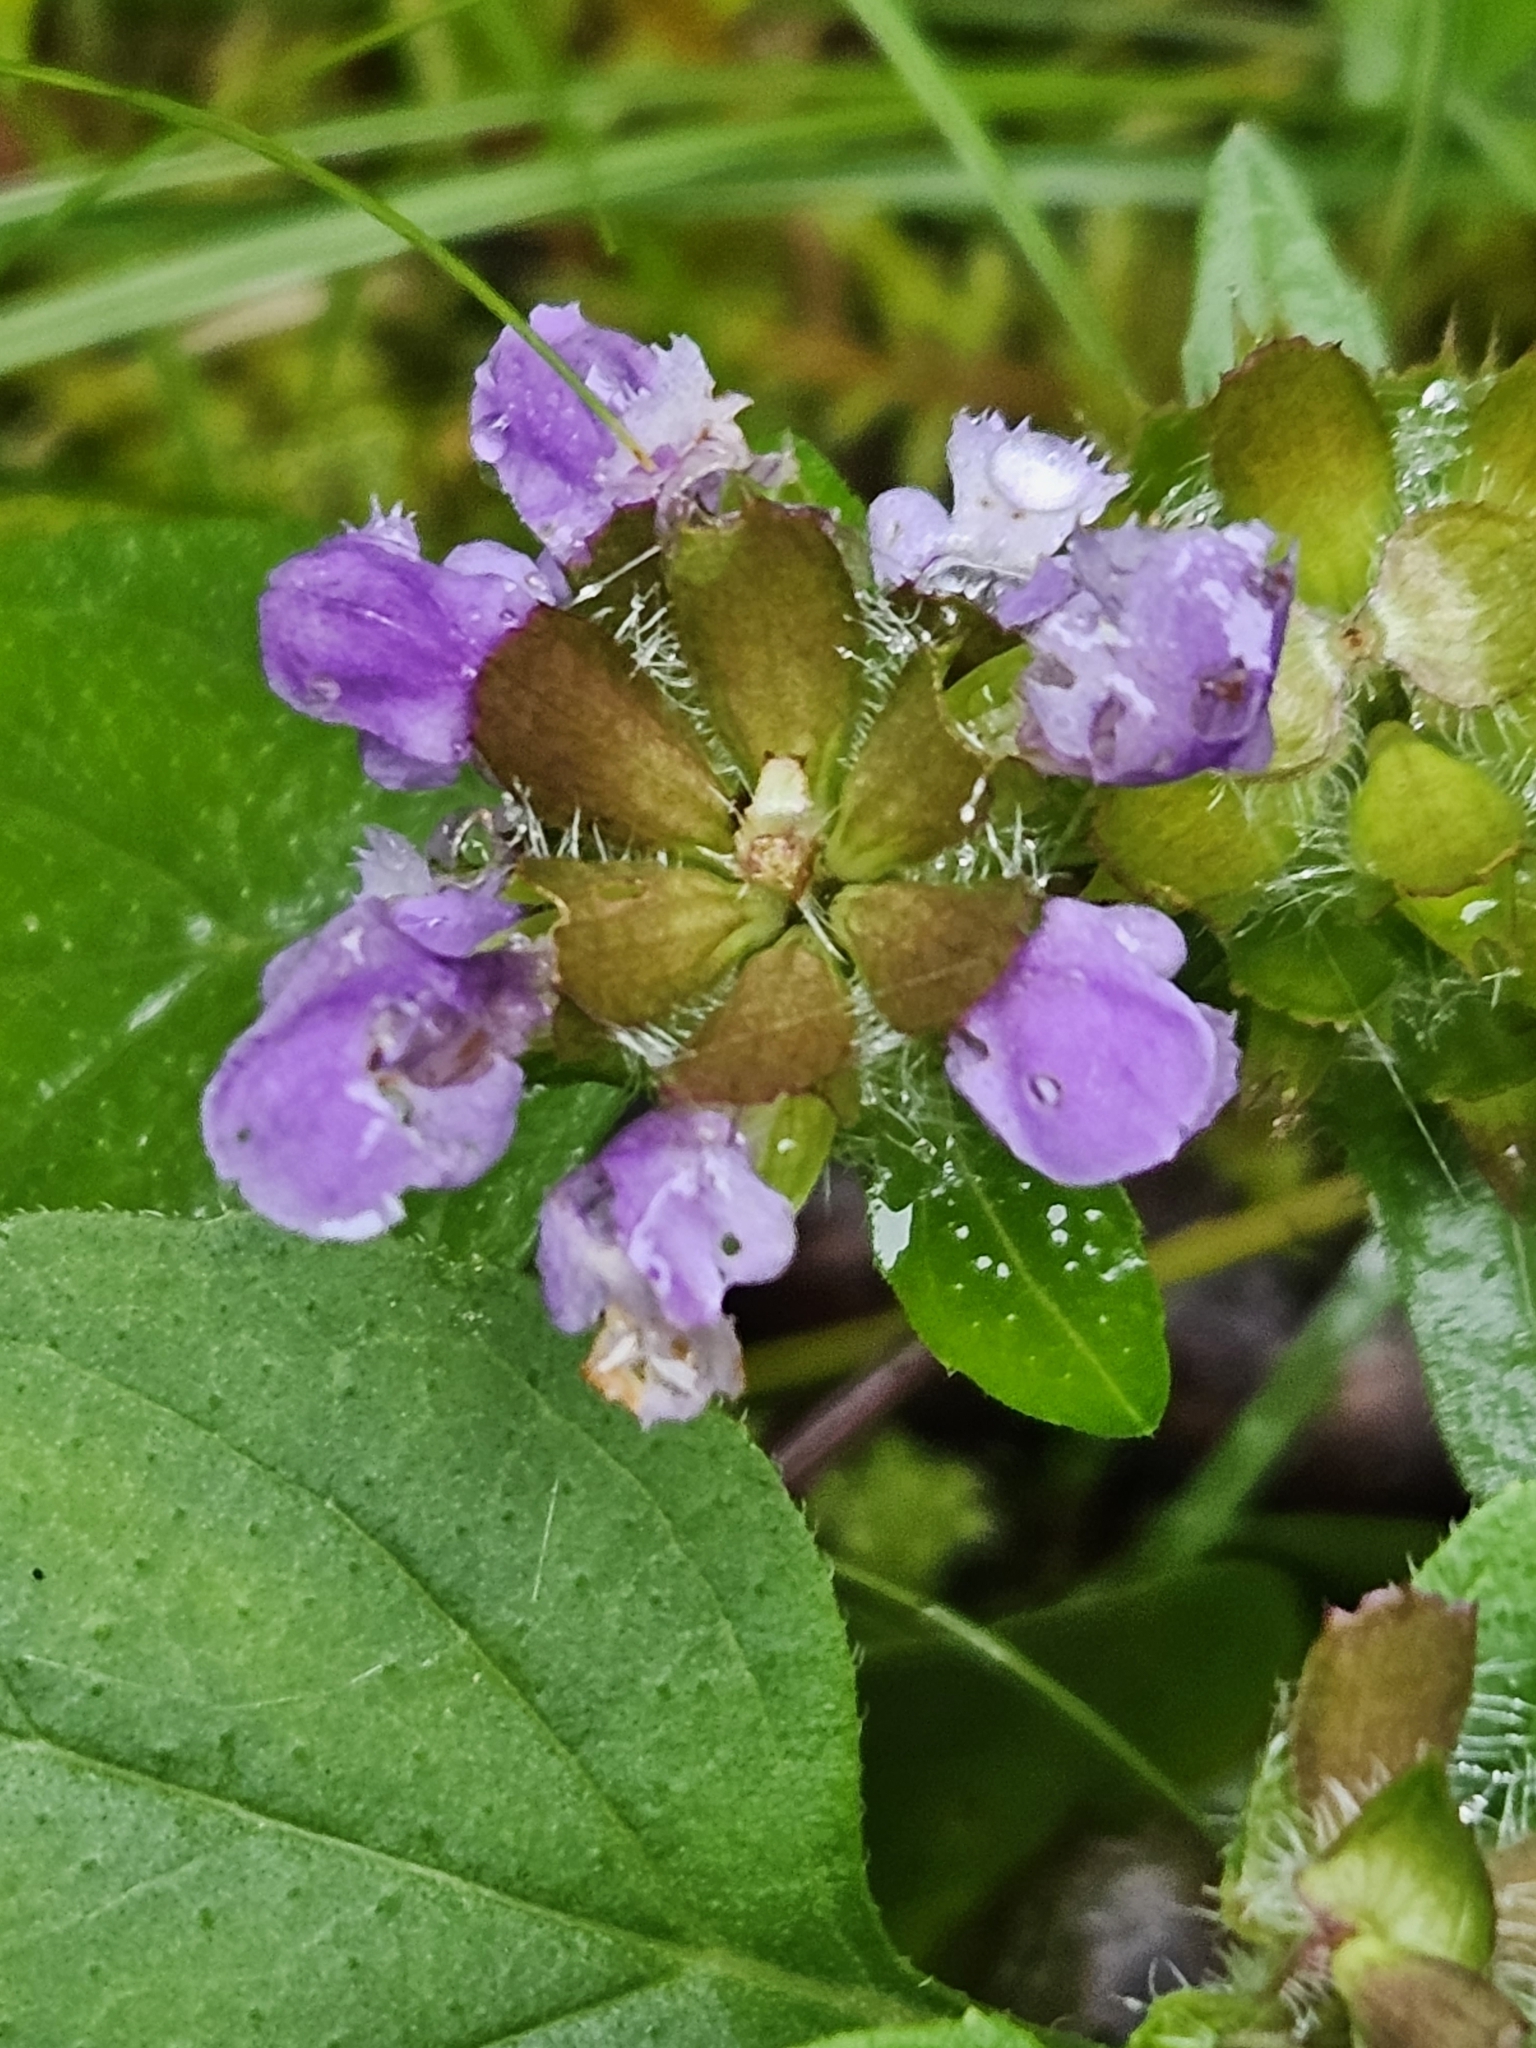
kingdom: Plantae
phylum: Tracheophyta
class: Magnoliopsida
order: Lamiales
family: Lamiaceae
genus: Prunella
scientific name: Prunella vulgaris
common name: Heal-all
